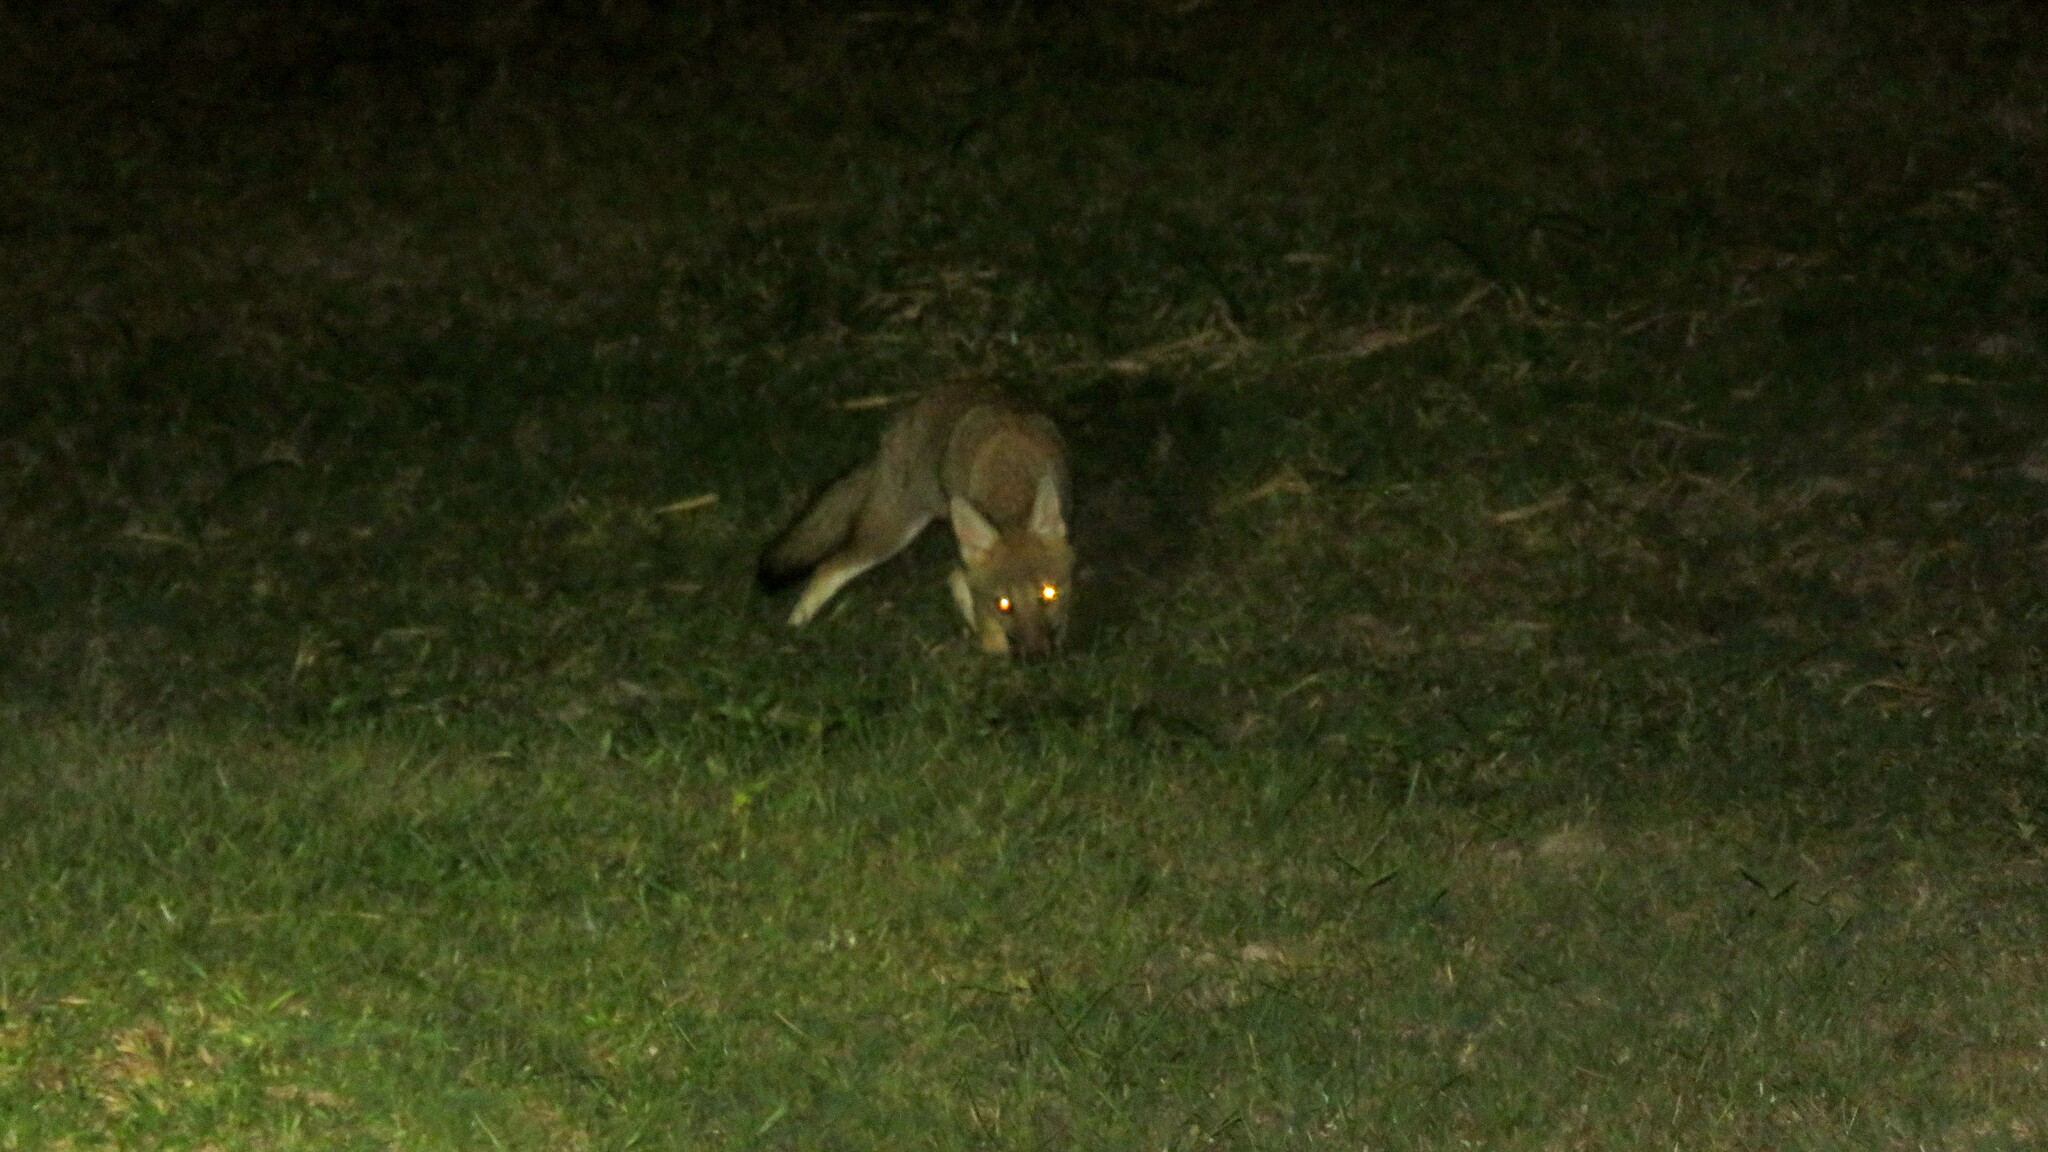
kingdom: Animalia
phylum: Chordata
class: Mammalia
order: Carnivora
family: Canidae
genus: Lycalopex
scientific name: Lycalopex gymnocercus
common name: Pampas fox
